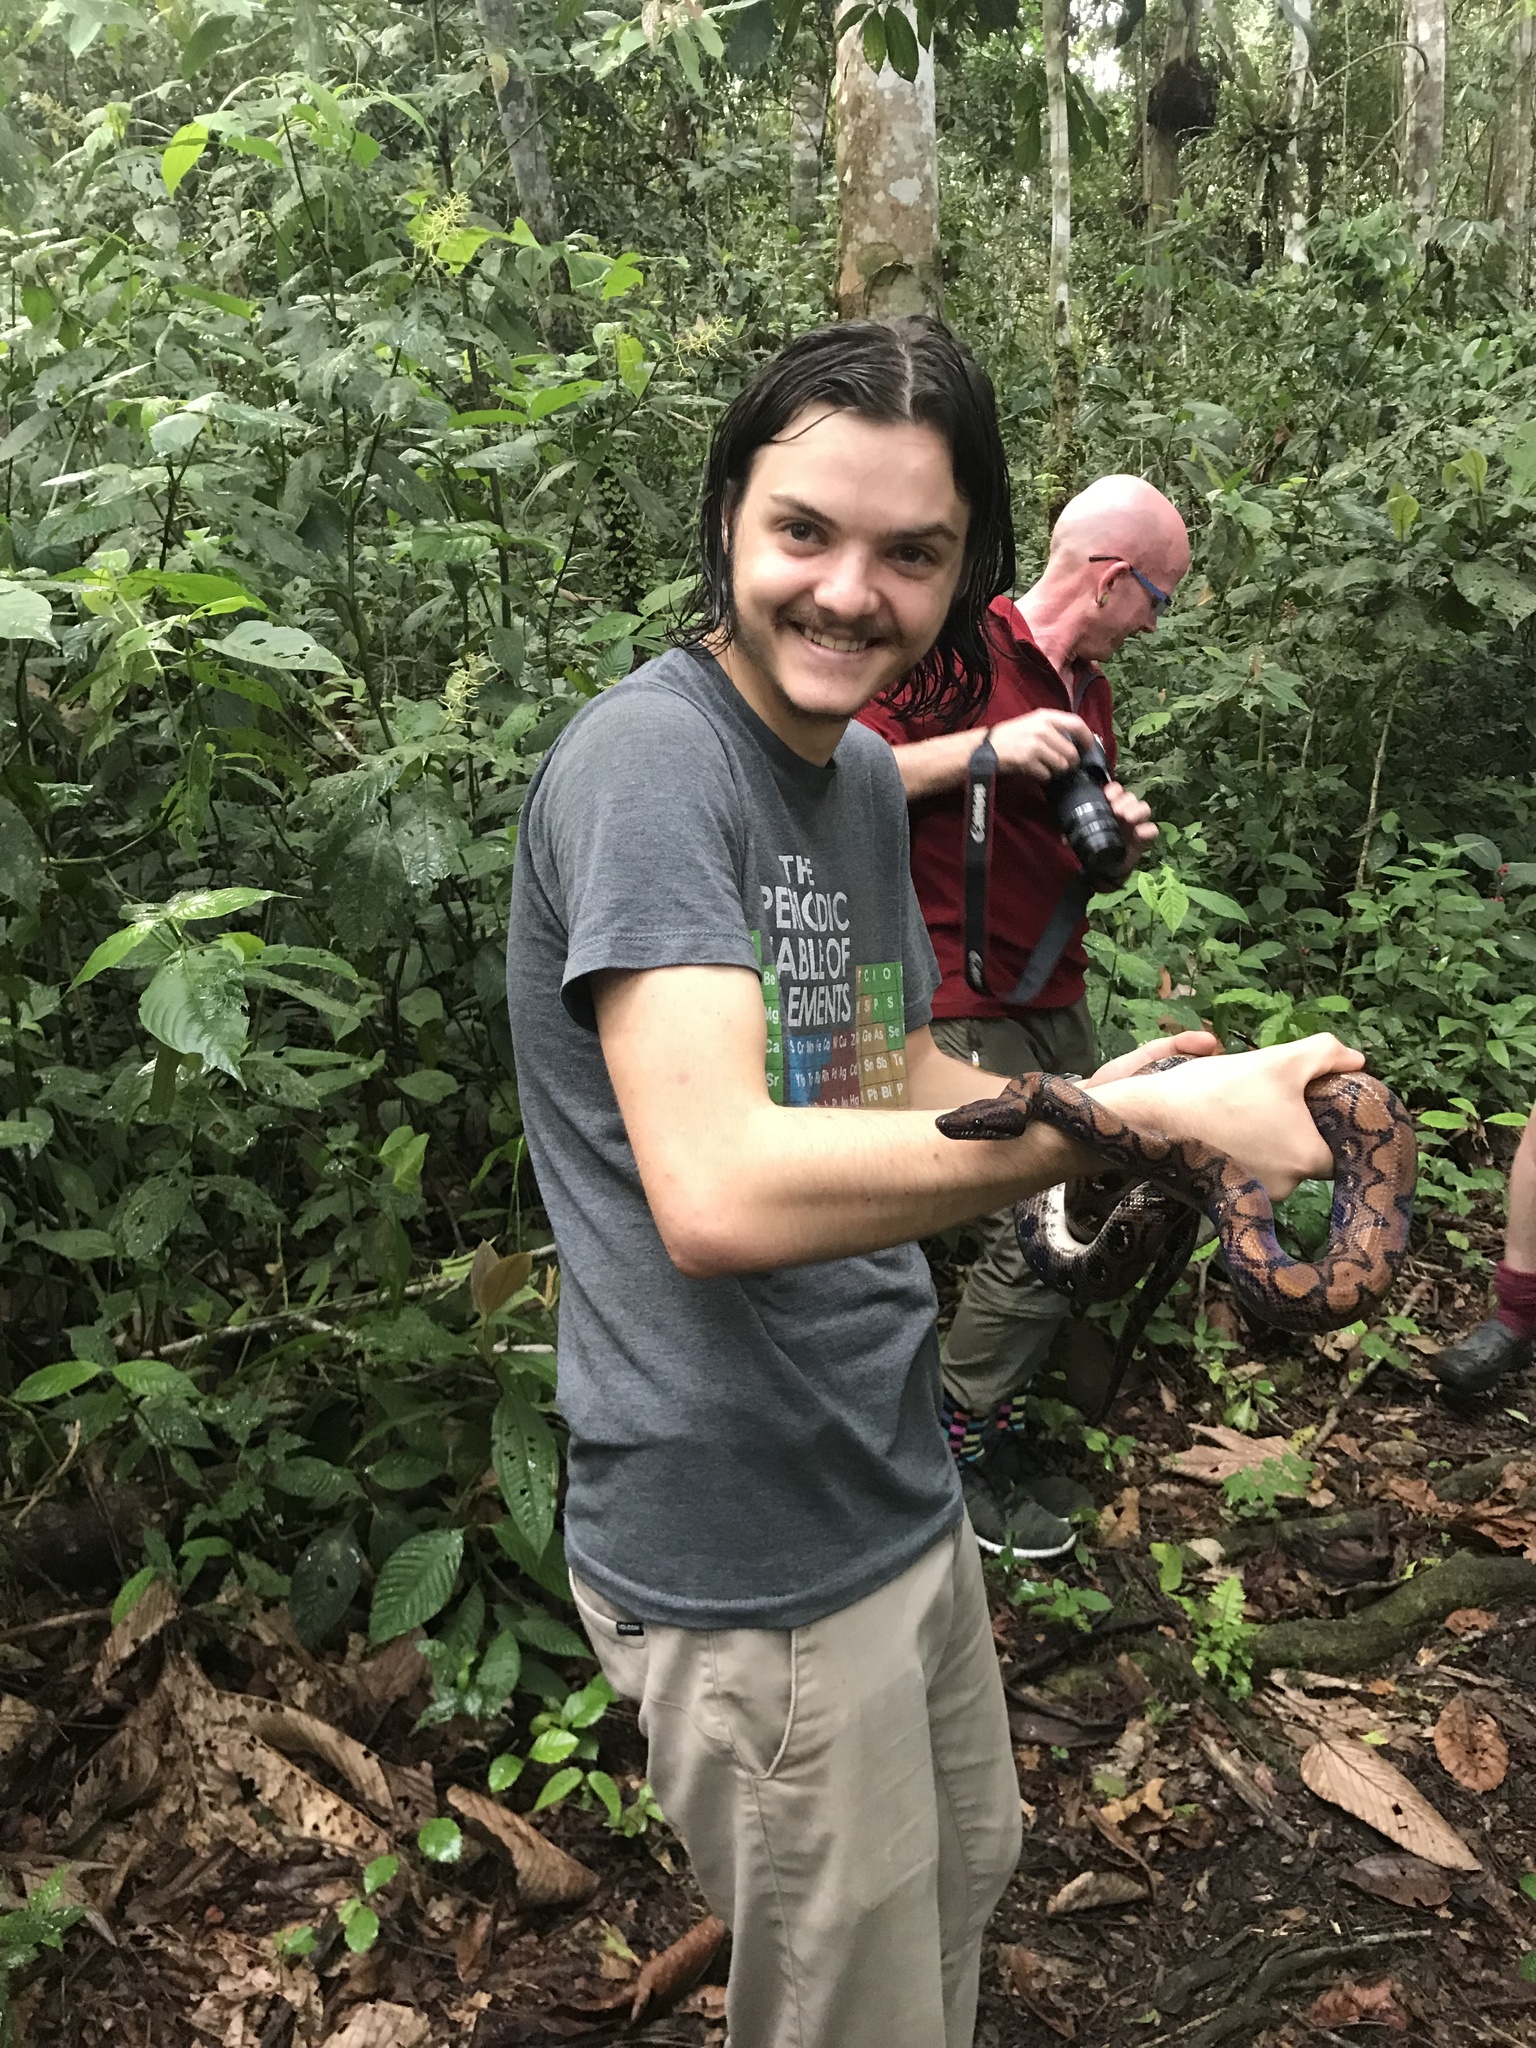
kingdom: Animalia
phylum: Chordata
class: Squamata
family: Boidae
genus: Epicrates
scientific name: Epicrates cenchria
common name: Rainbow boa
